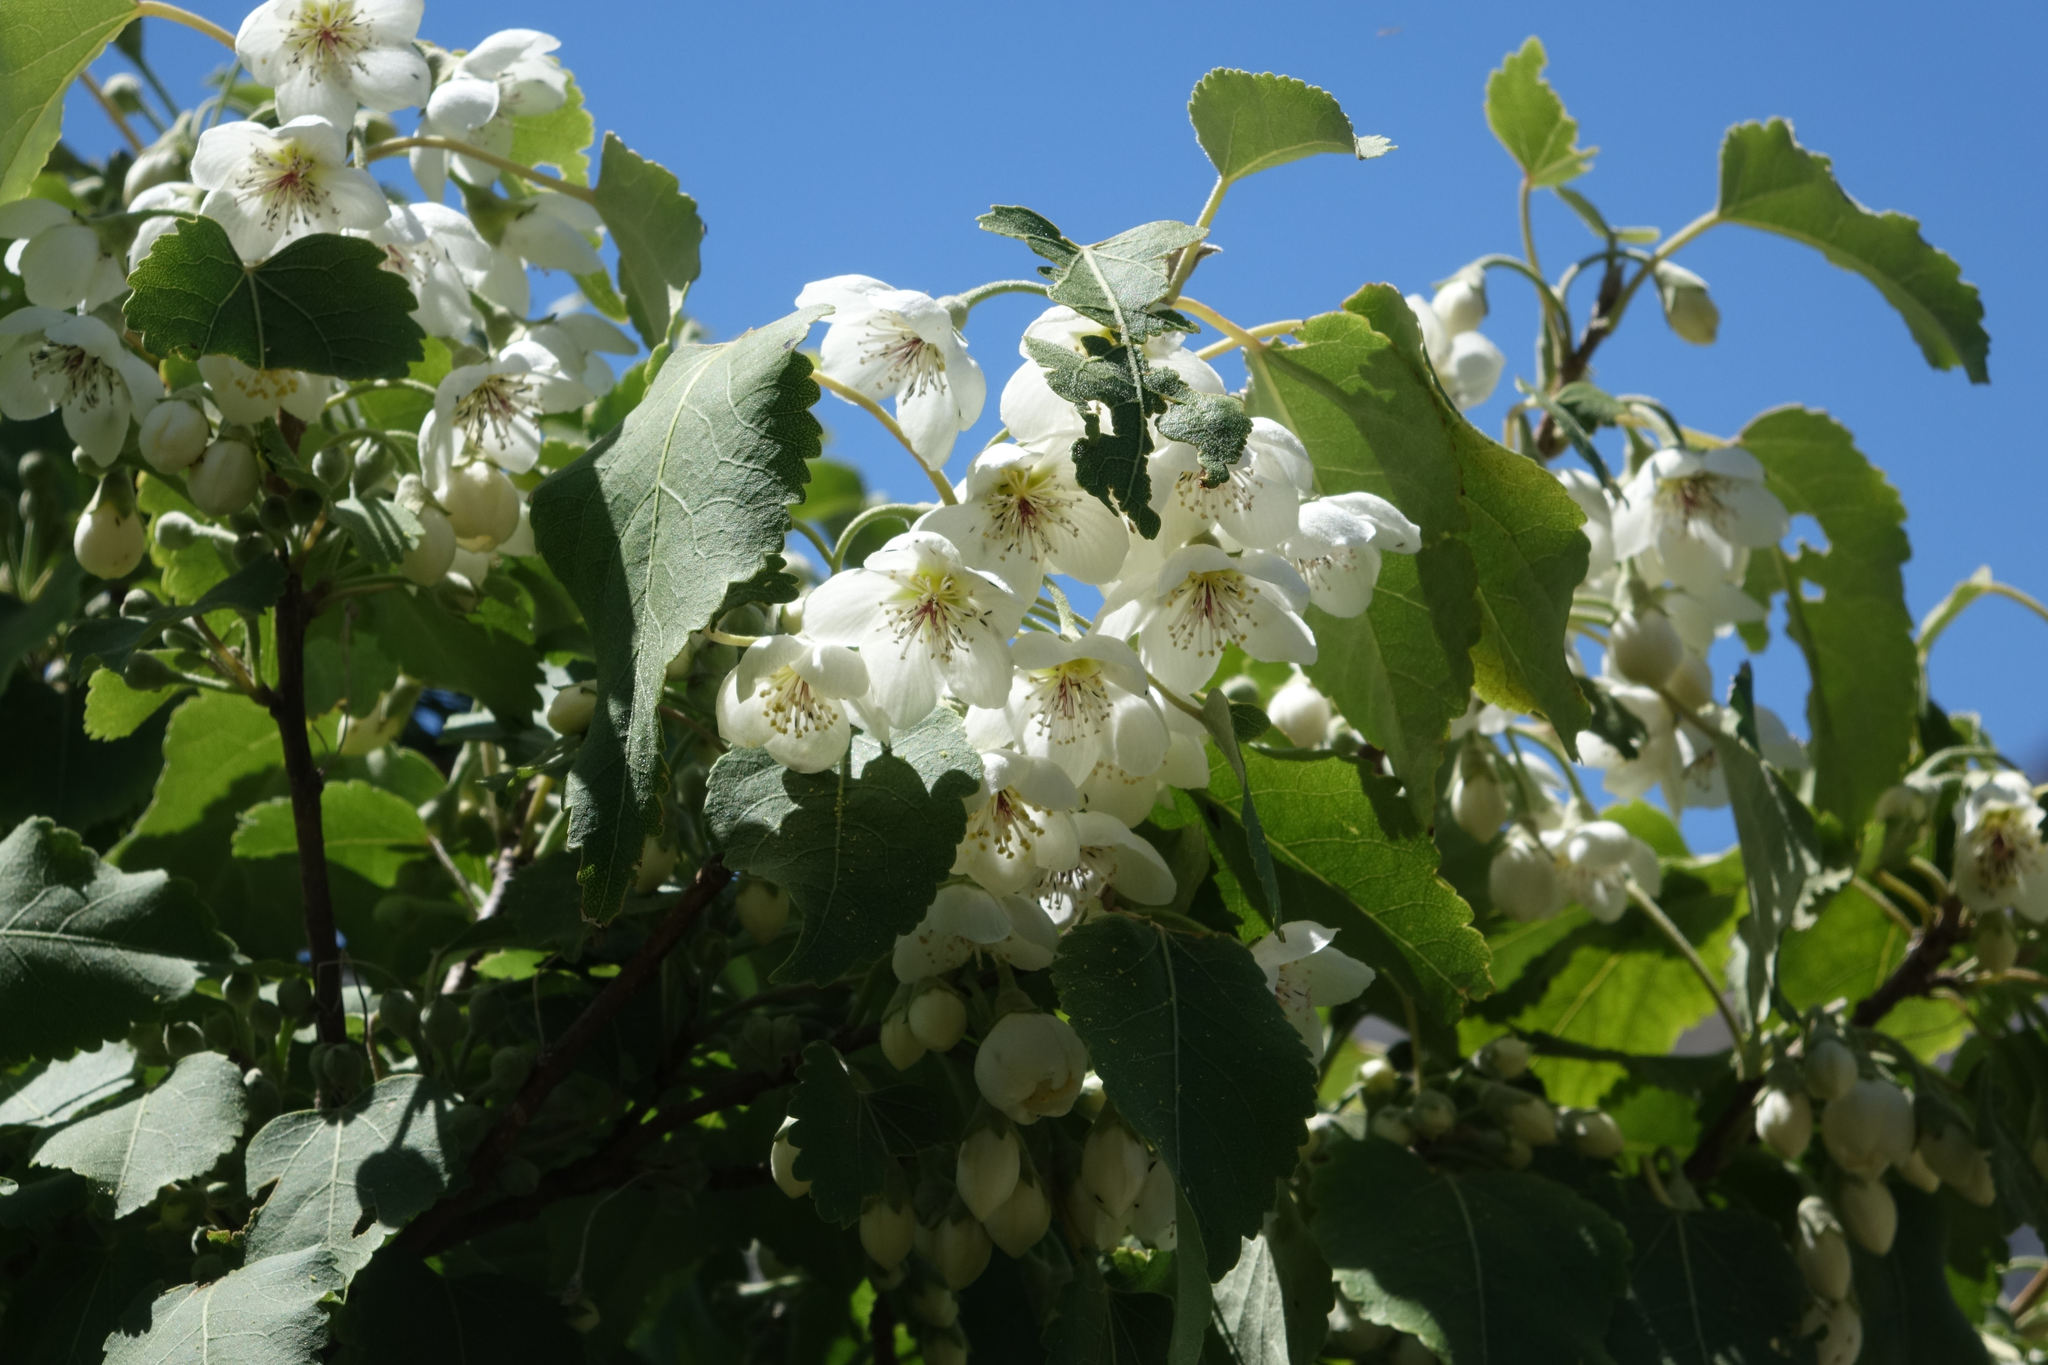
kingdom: Plantae
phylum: Tracheophyta
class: Magnoliopsida
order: Malvales
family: Malvaceae
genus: Hoheria
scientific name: Hoheria lyallii
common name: Lacebark
